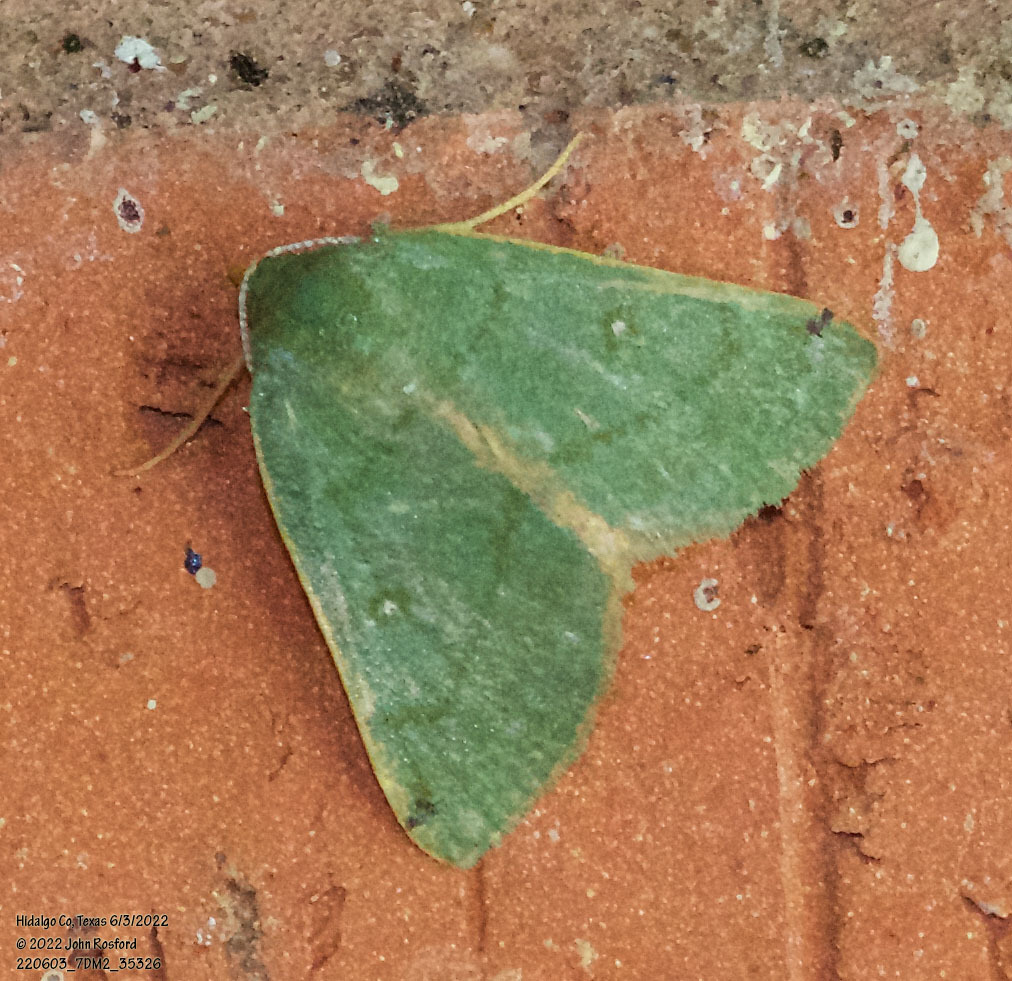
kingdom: Animalia
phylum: Arthropoda
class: Insecta
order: Lepidoptera
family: Geometridae
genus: Chloraspilates
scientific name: Chloraspilates bicoloraria
